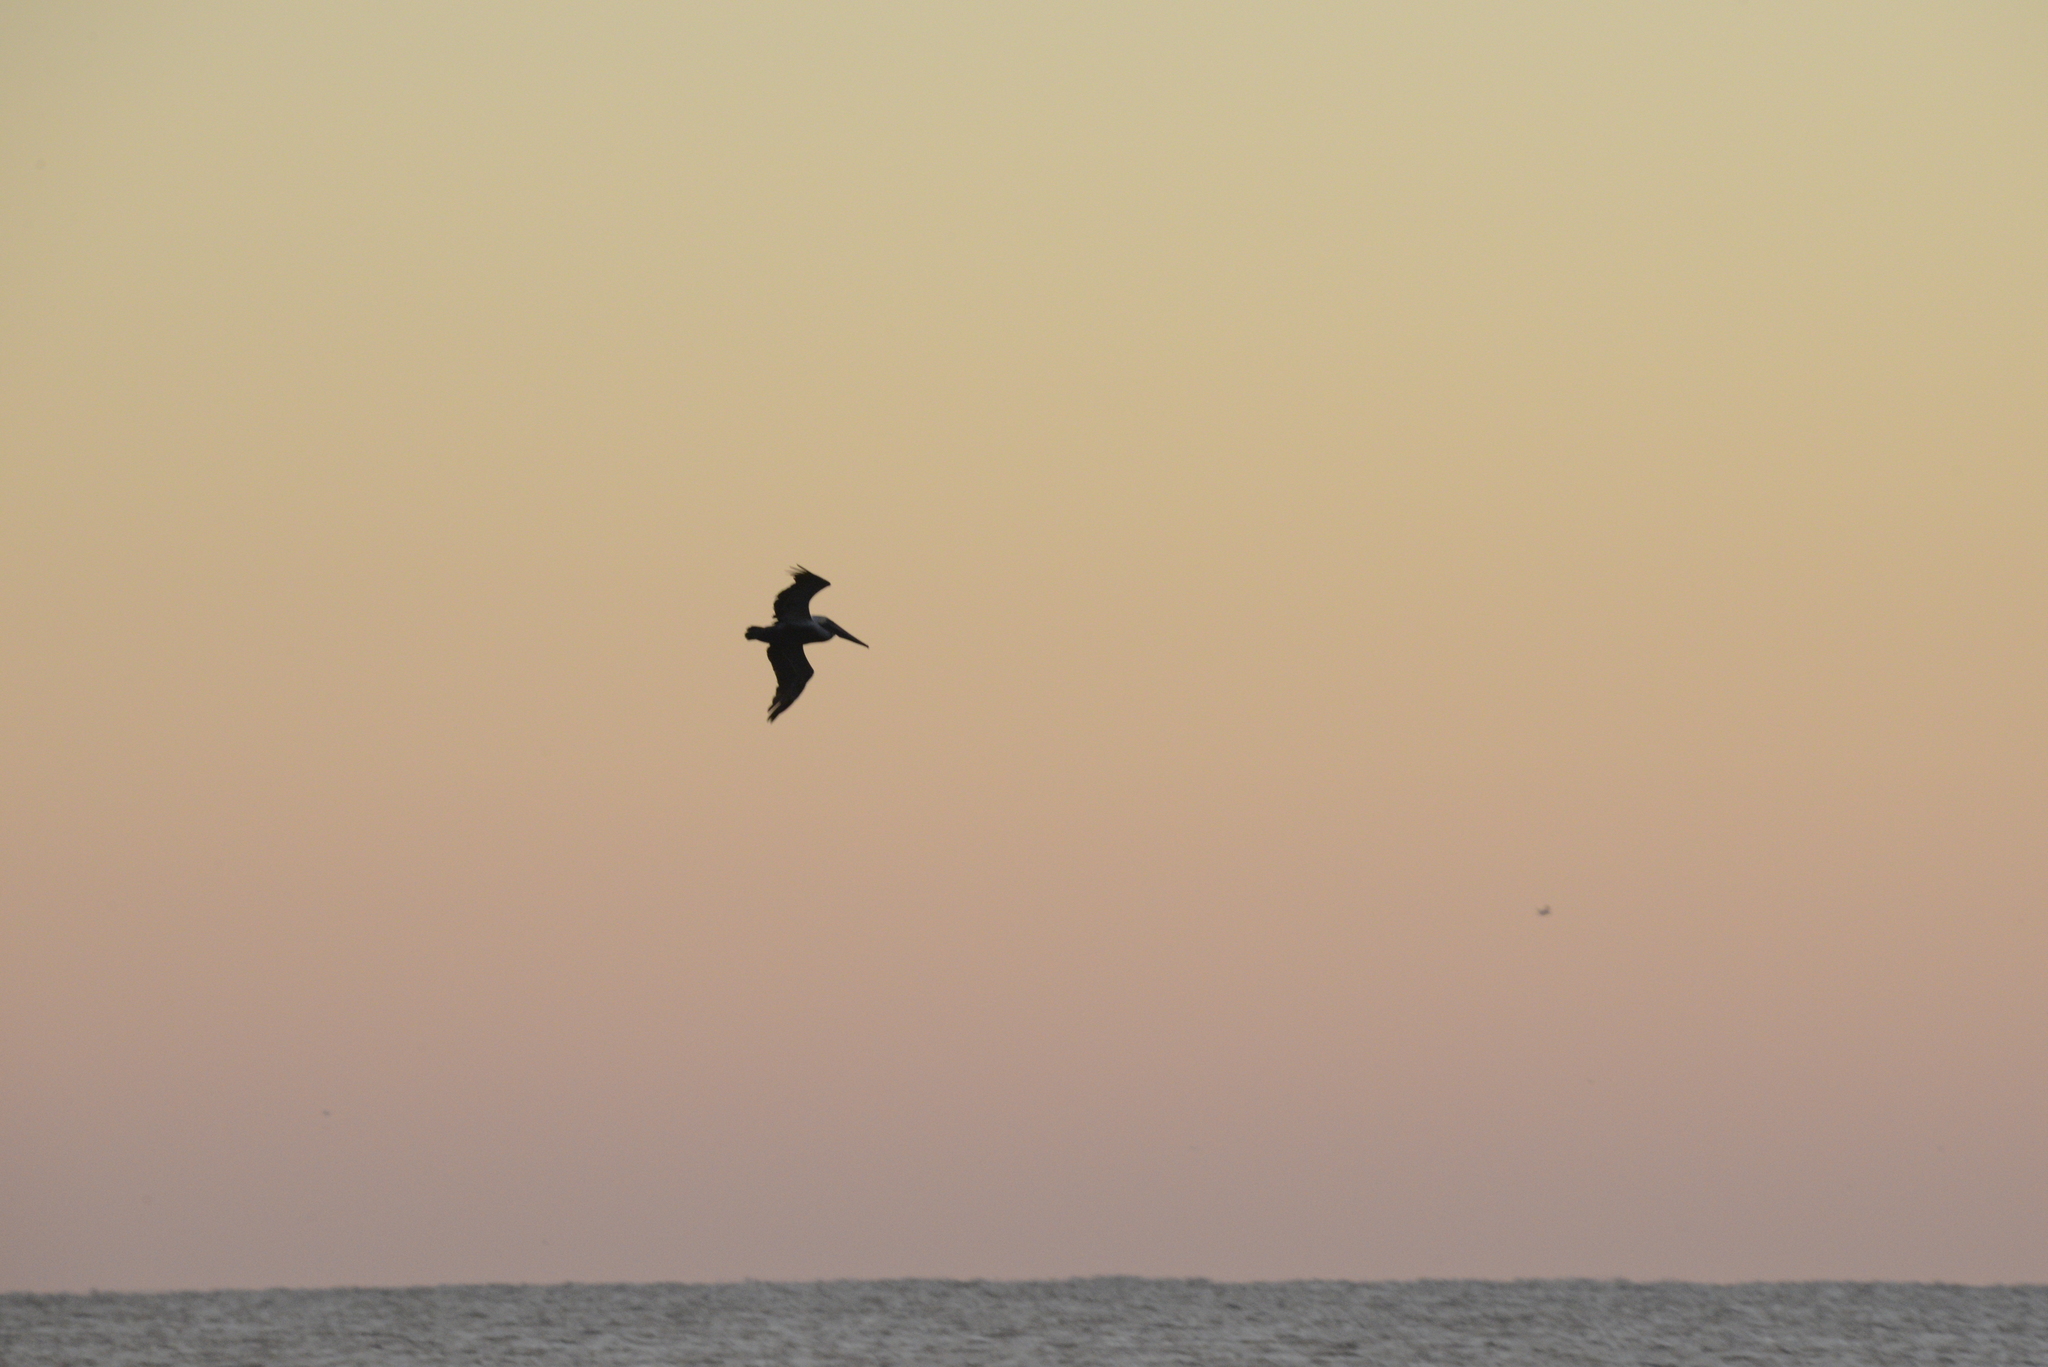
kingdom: Animalia
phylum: Chordata
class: Aves
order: Pelecaniformes
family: Pelecanidae
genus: Pelecanus
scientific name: Pelecanus occidentalis
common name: Brown pelican
